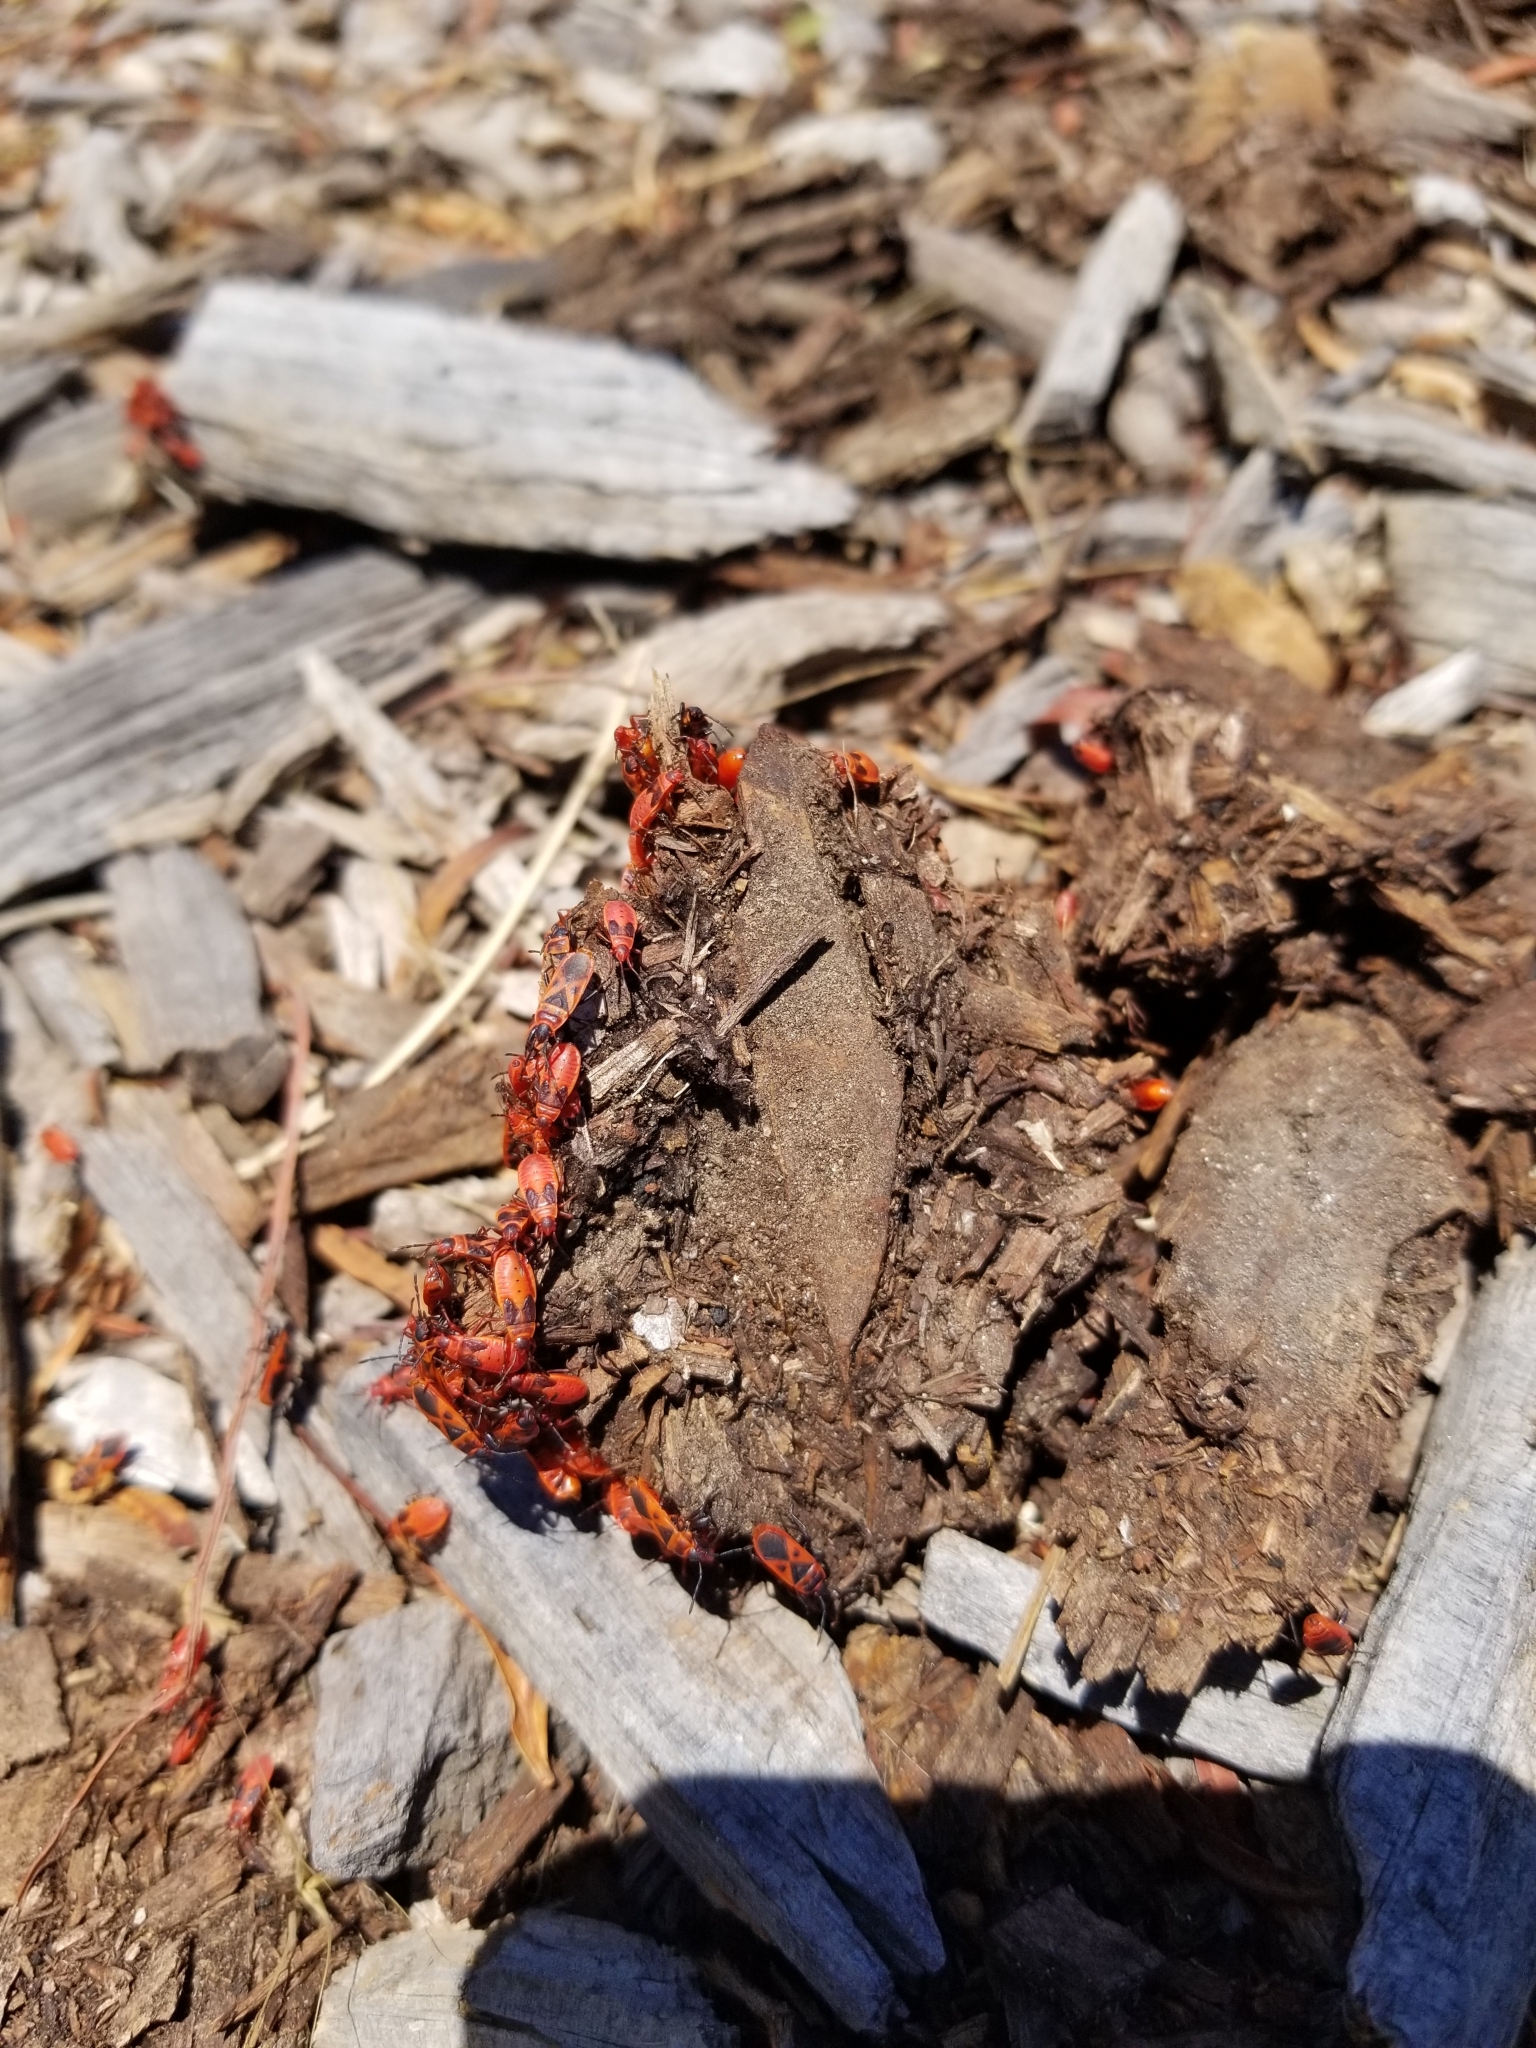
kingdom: Animalia
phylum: Arthropoda
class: Insecta
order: Hemiptera
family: Pyrrhocoridae
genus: Scantius
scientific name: Scantius aegyptius
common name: Red bug
